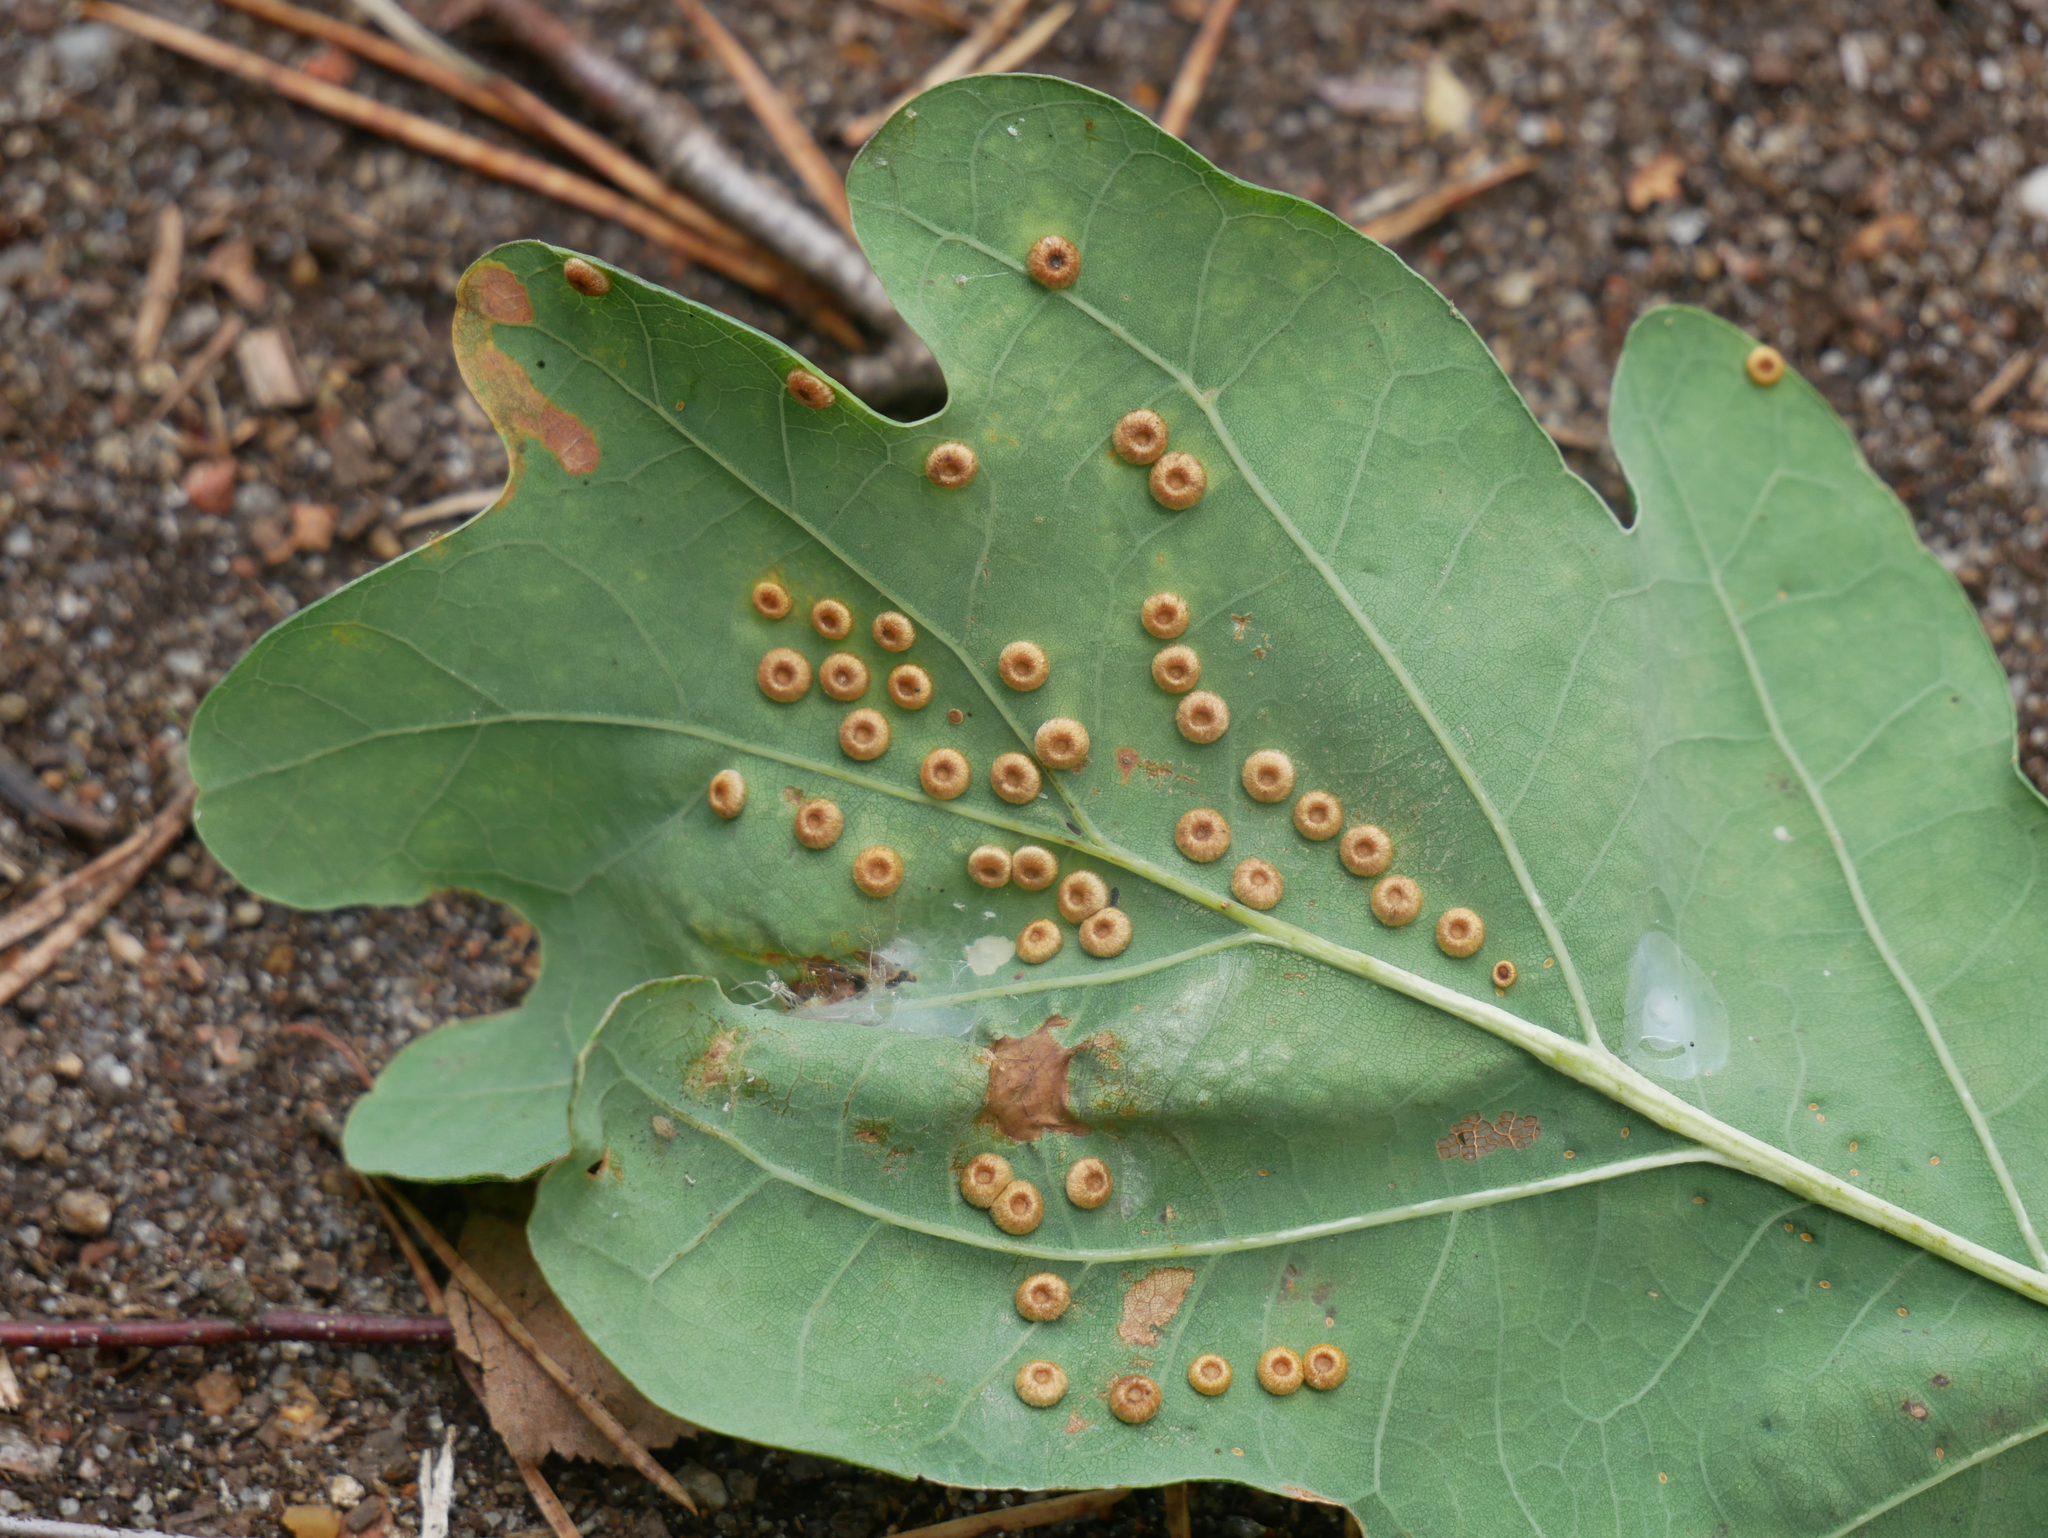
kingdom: Animalia
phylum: Arthropoda
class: Insecta
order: Hymenoptera
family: Cynipidae
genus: Neuroterus
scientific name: Neuroterus numismalis
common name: Silk-button spangle gall
